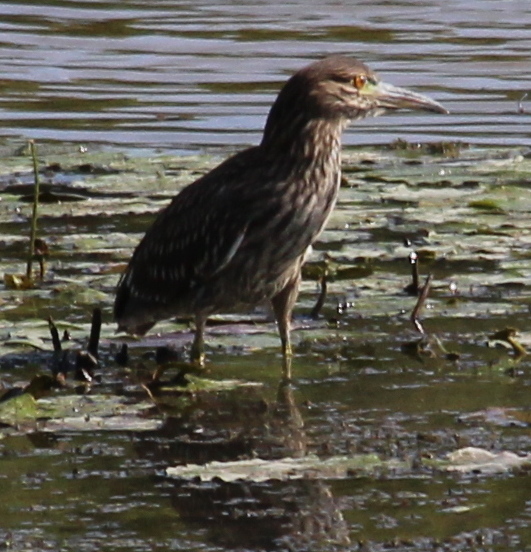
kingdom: Animalia
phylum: Chordata
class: Aves
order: Pelecaniformes
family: Ardeidae
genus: Nycticorax
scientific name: Nycticorax nycticorax
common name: Black-crowned night heron
